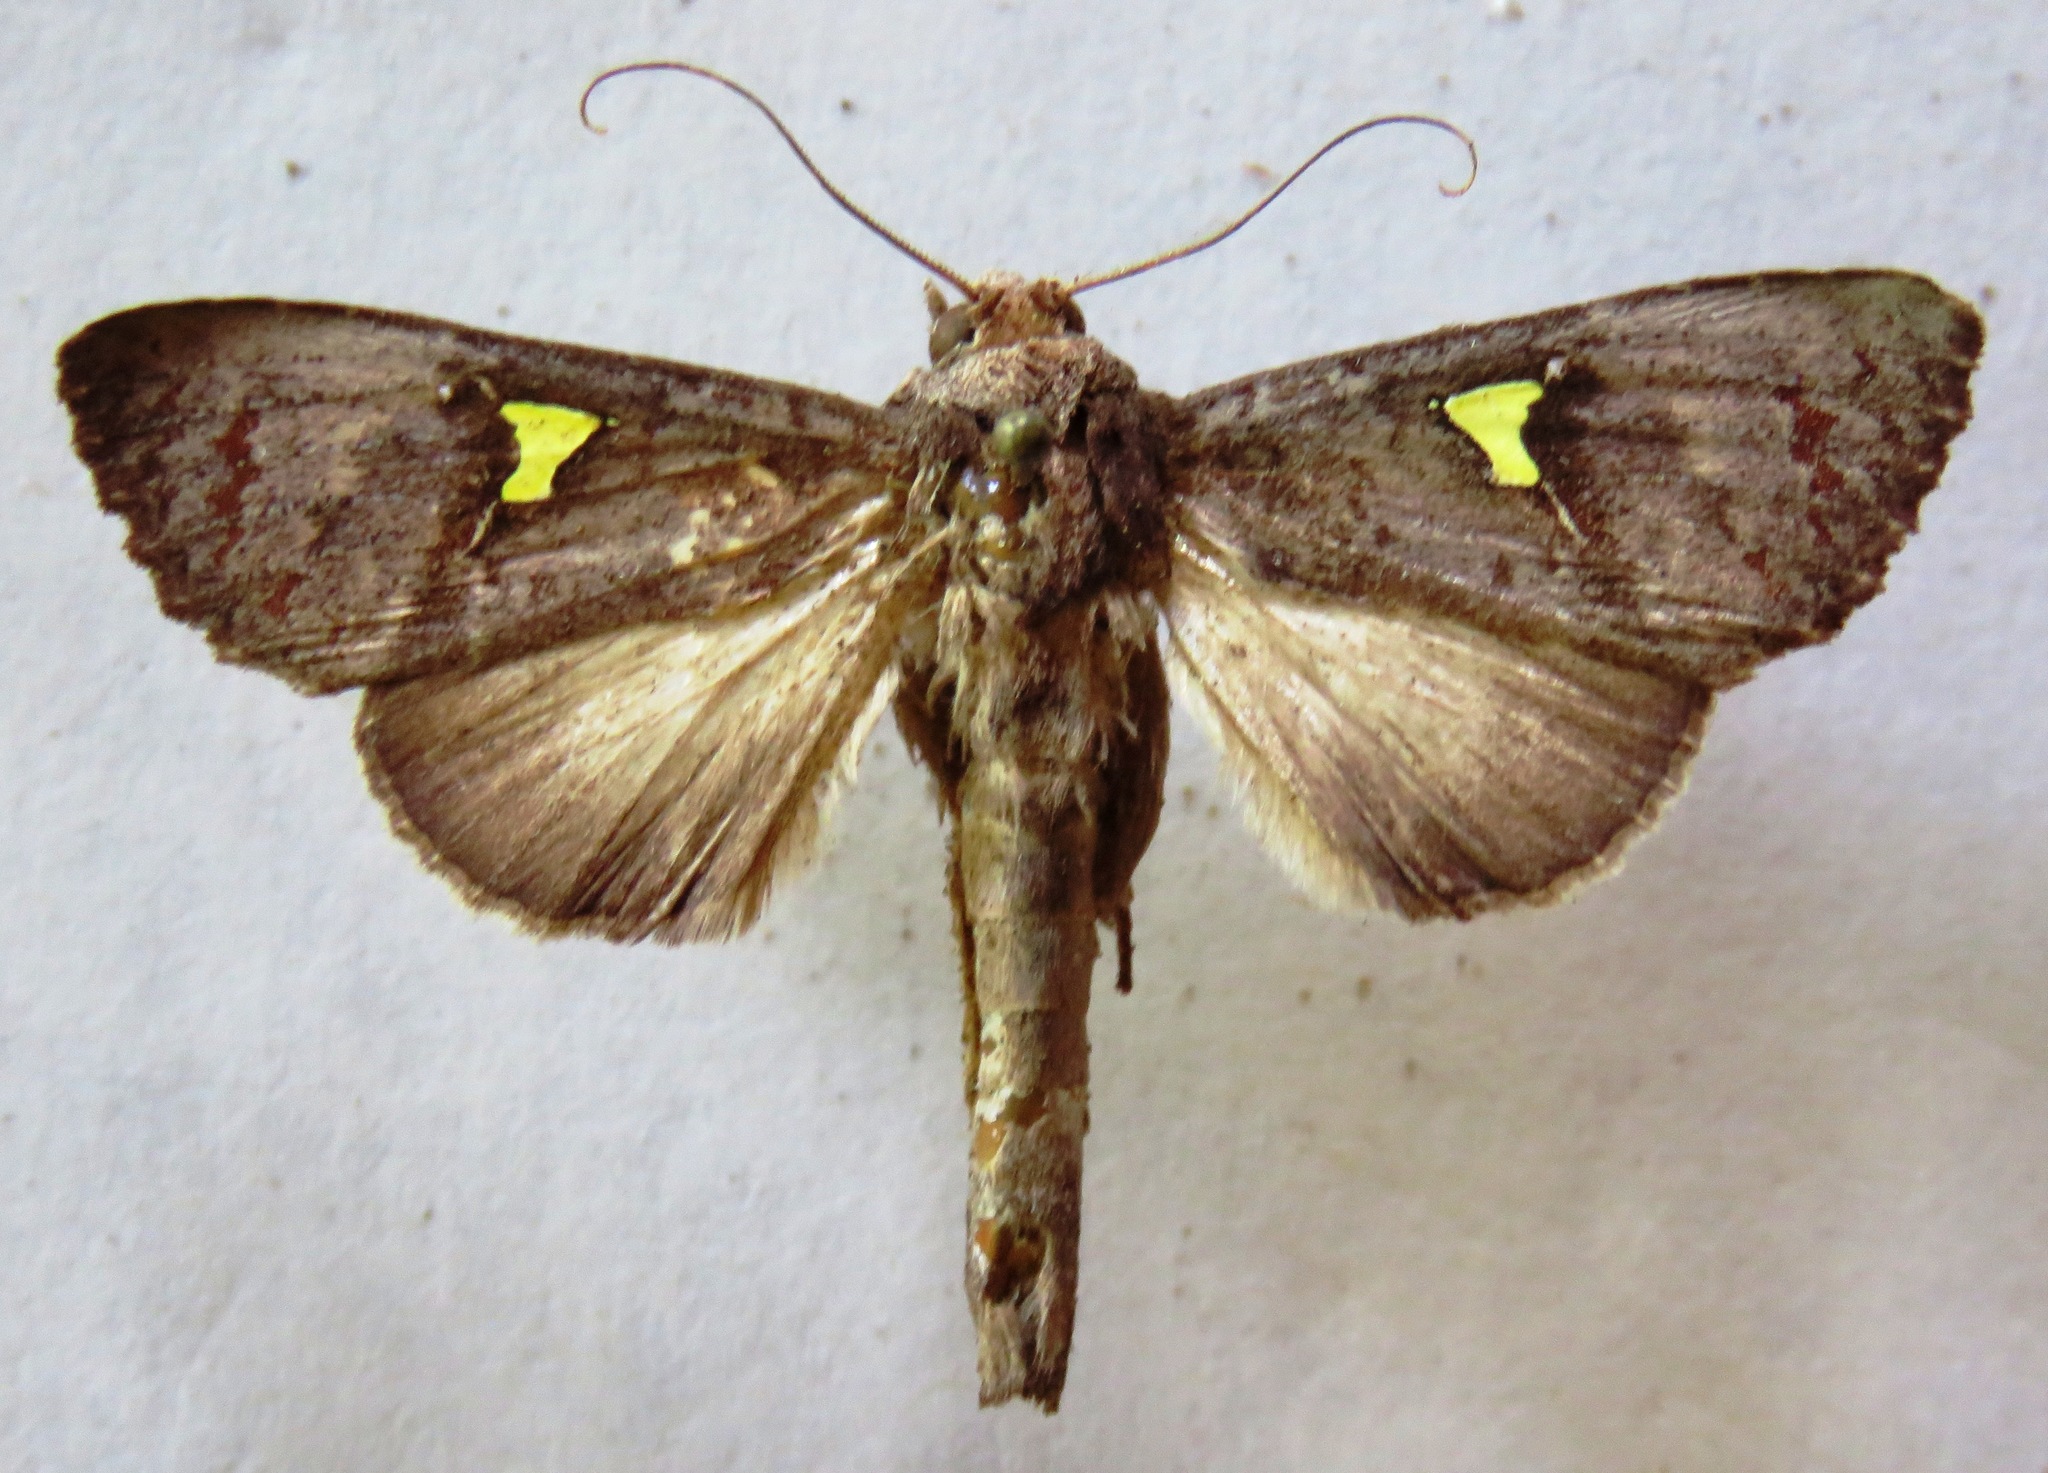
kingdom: Animalia
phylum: Arthropoda
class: Insecta
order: Lepidoptera
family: Notodontidae
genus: Sericochroa
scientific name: Sericochroa flavodiscata
